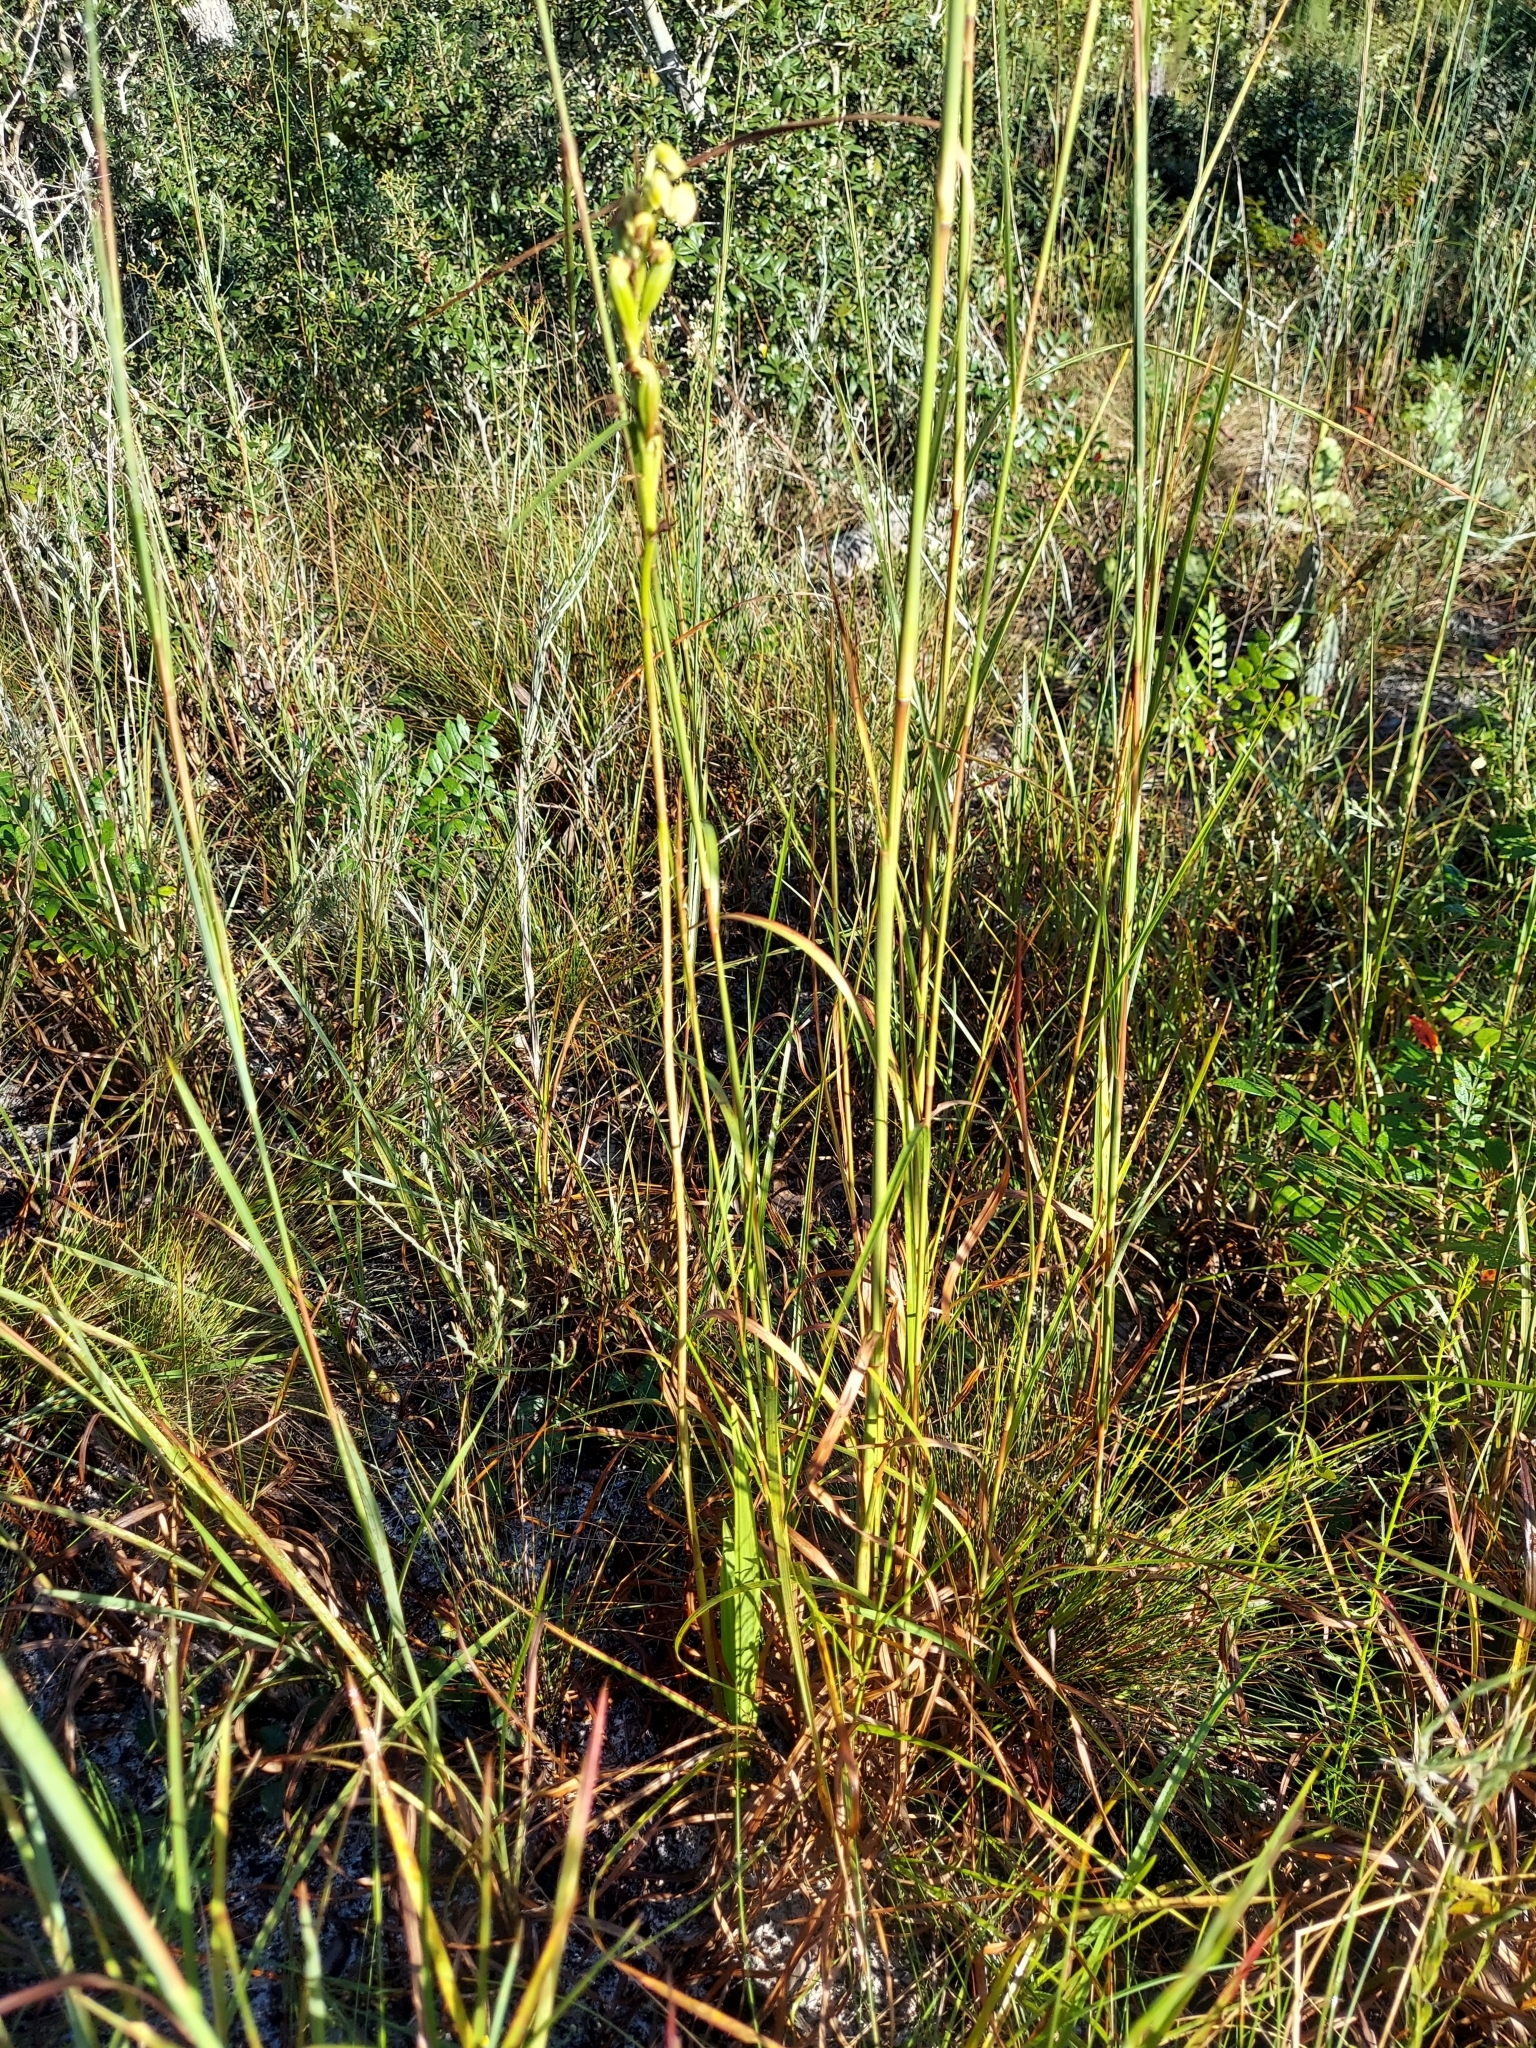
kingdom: Plantae
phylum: Tracheophyta
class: Liliopsida
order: Asparagales
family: Orchidaceae
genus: Eulophia
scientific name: Eulophia ecristata
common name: Giant orchid
